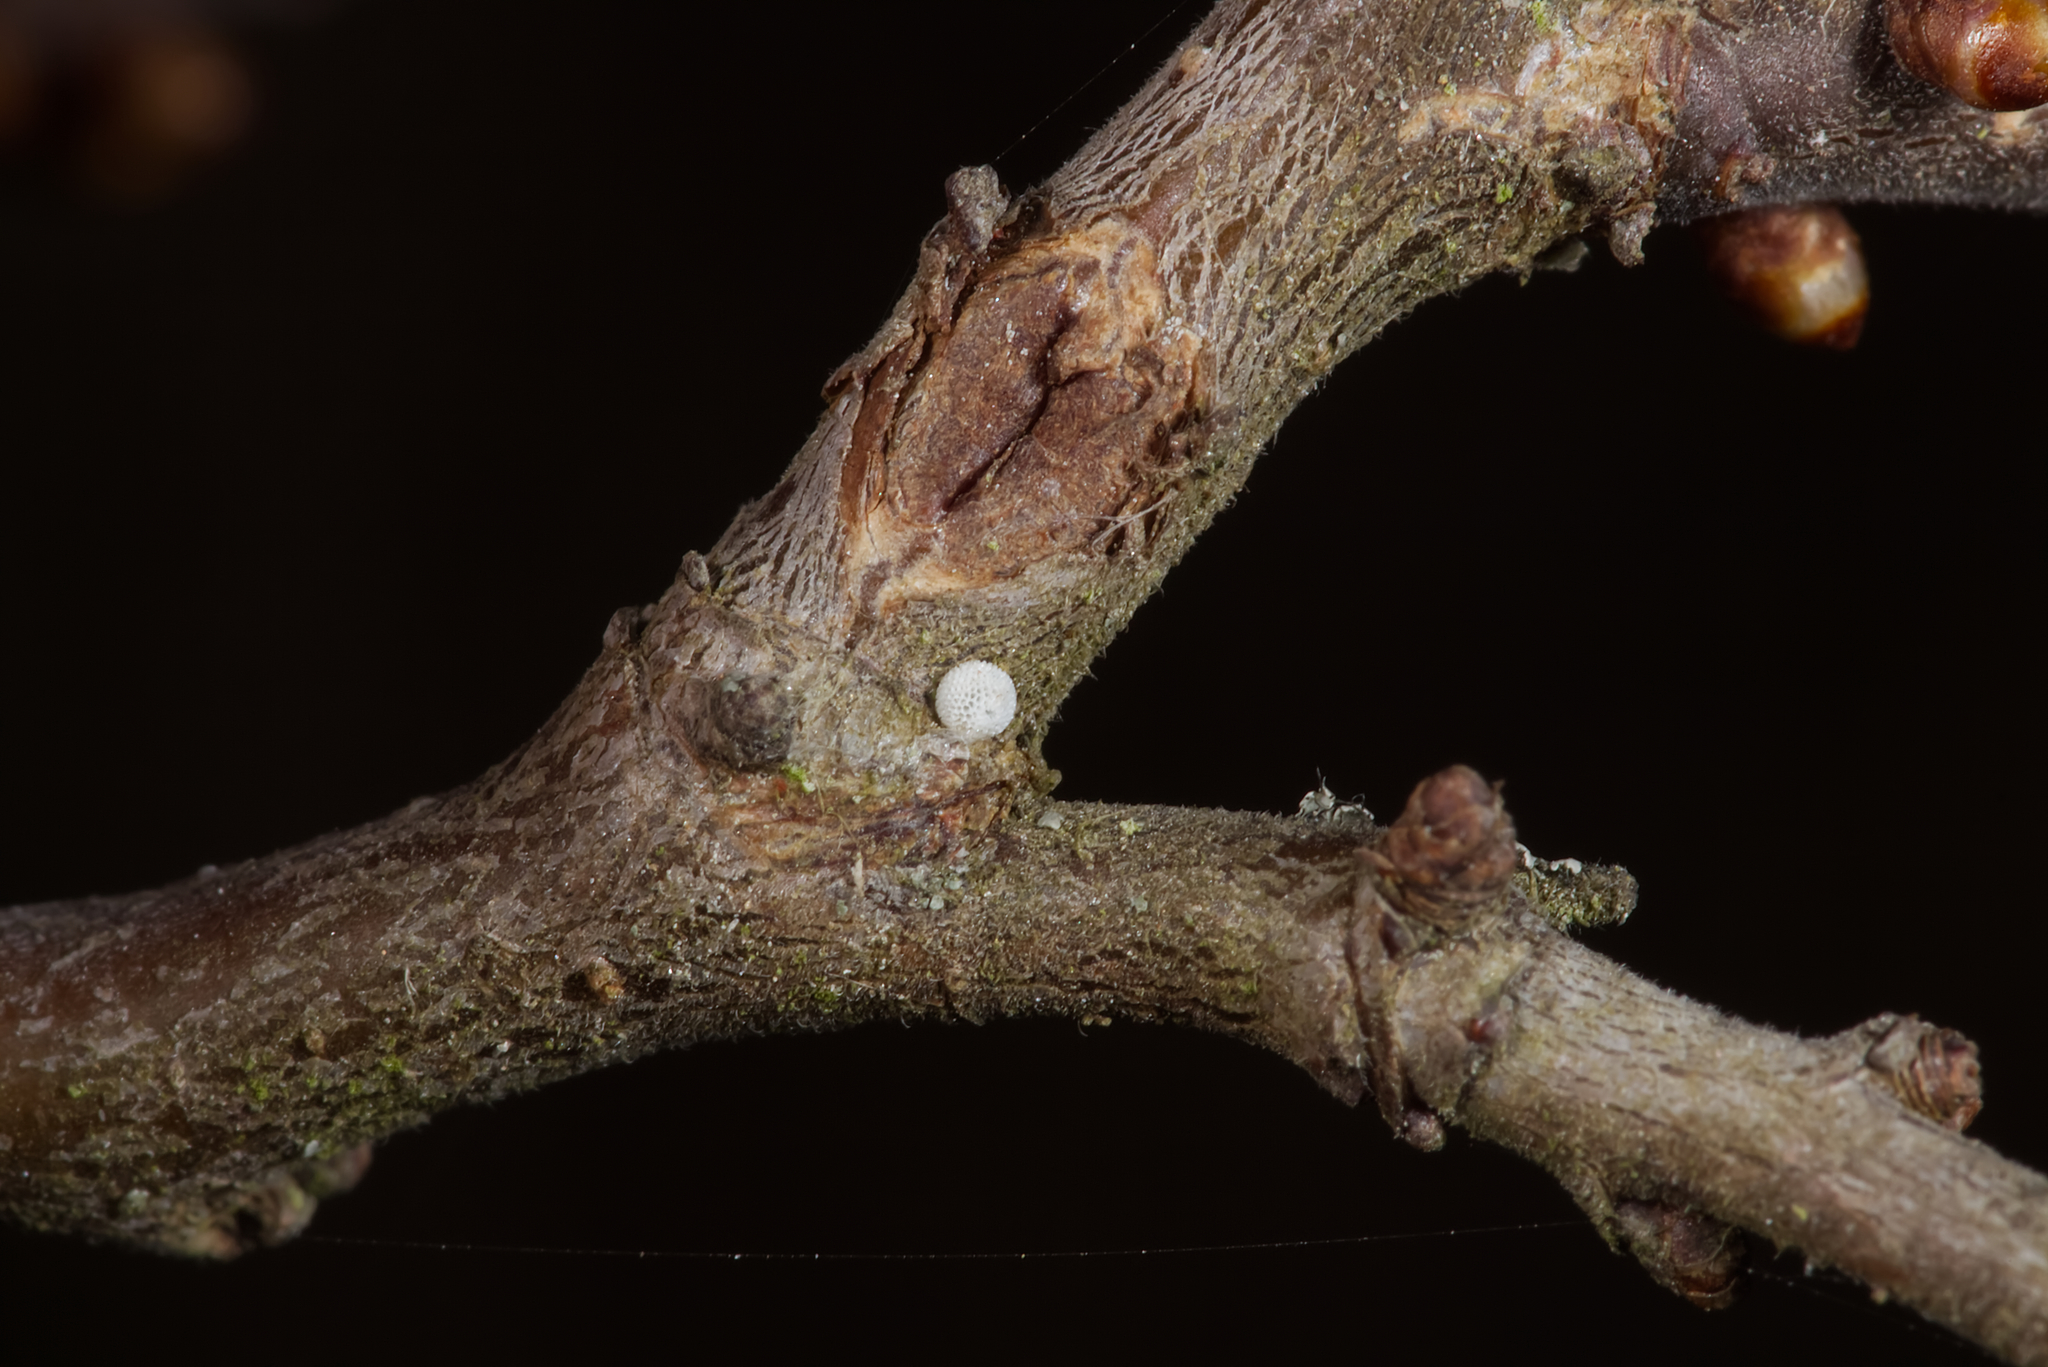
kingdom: Animalia
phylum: Arthropoda
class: Insecta
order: Lepidoptera
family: Lycaenidae
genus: Thecla
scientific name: Thecla betulae
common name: Brown hairstreak
